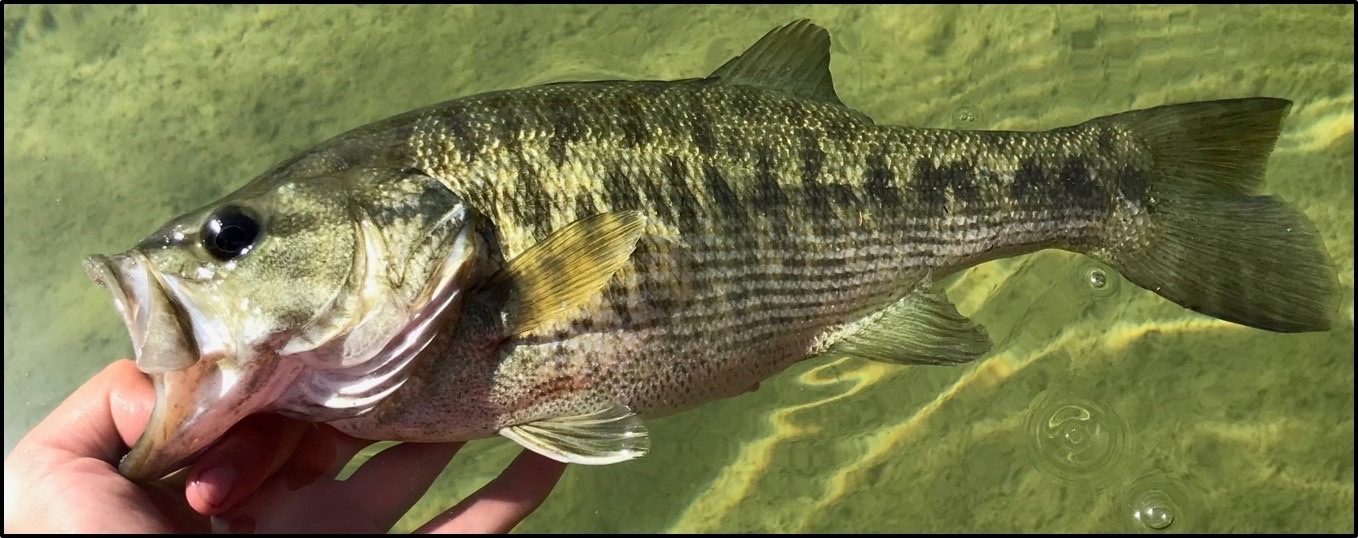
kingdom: Animalia
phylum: Chordata
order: Perciformes
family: Centrarchidae
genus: Micropterus
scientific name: Micropterus treculii
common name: Guadalupe bass
